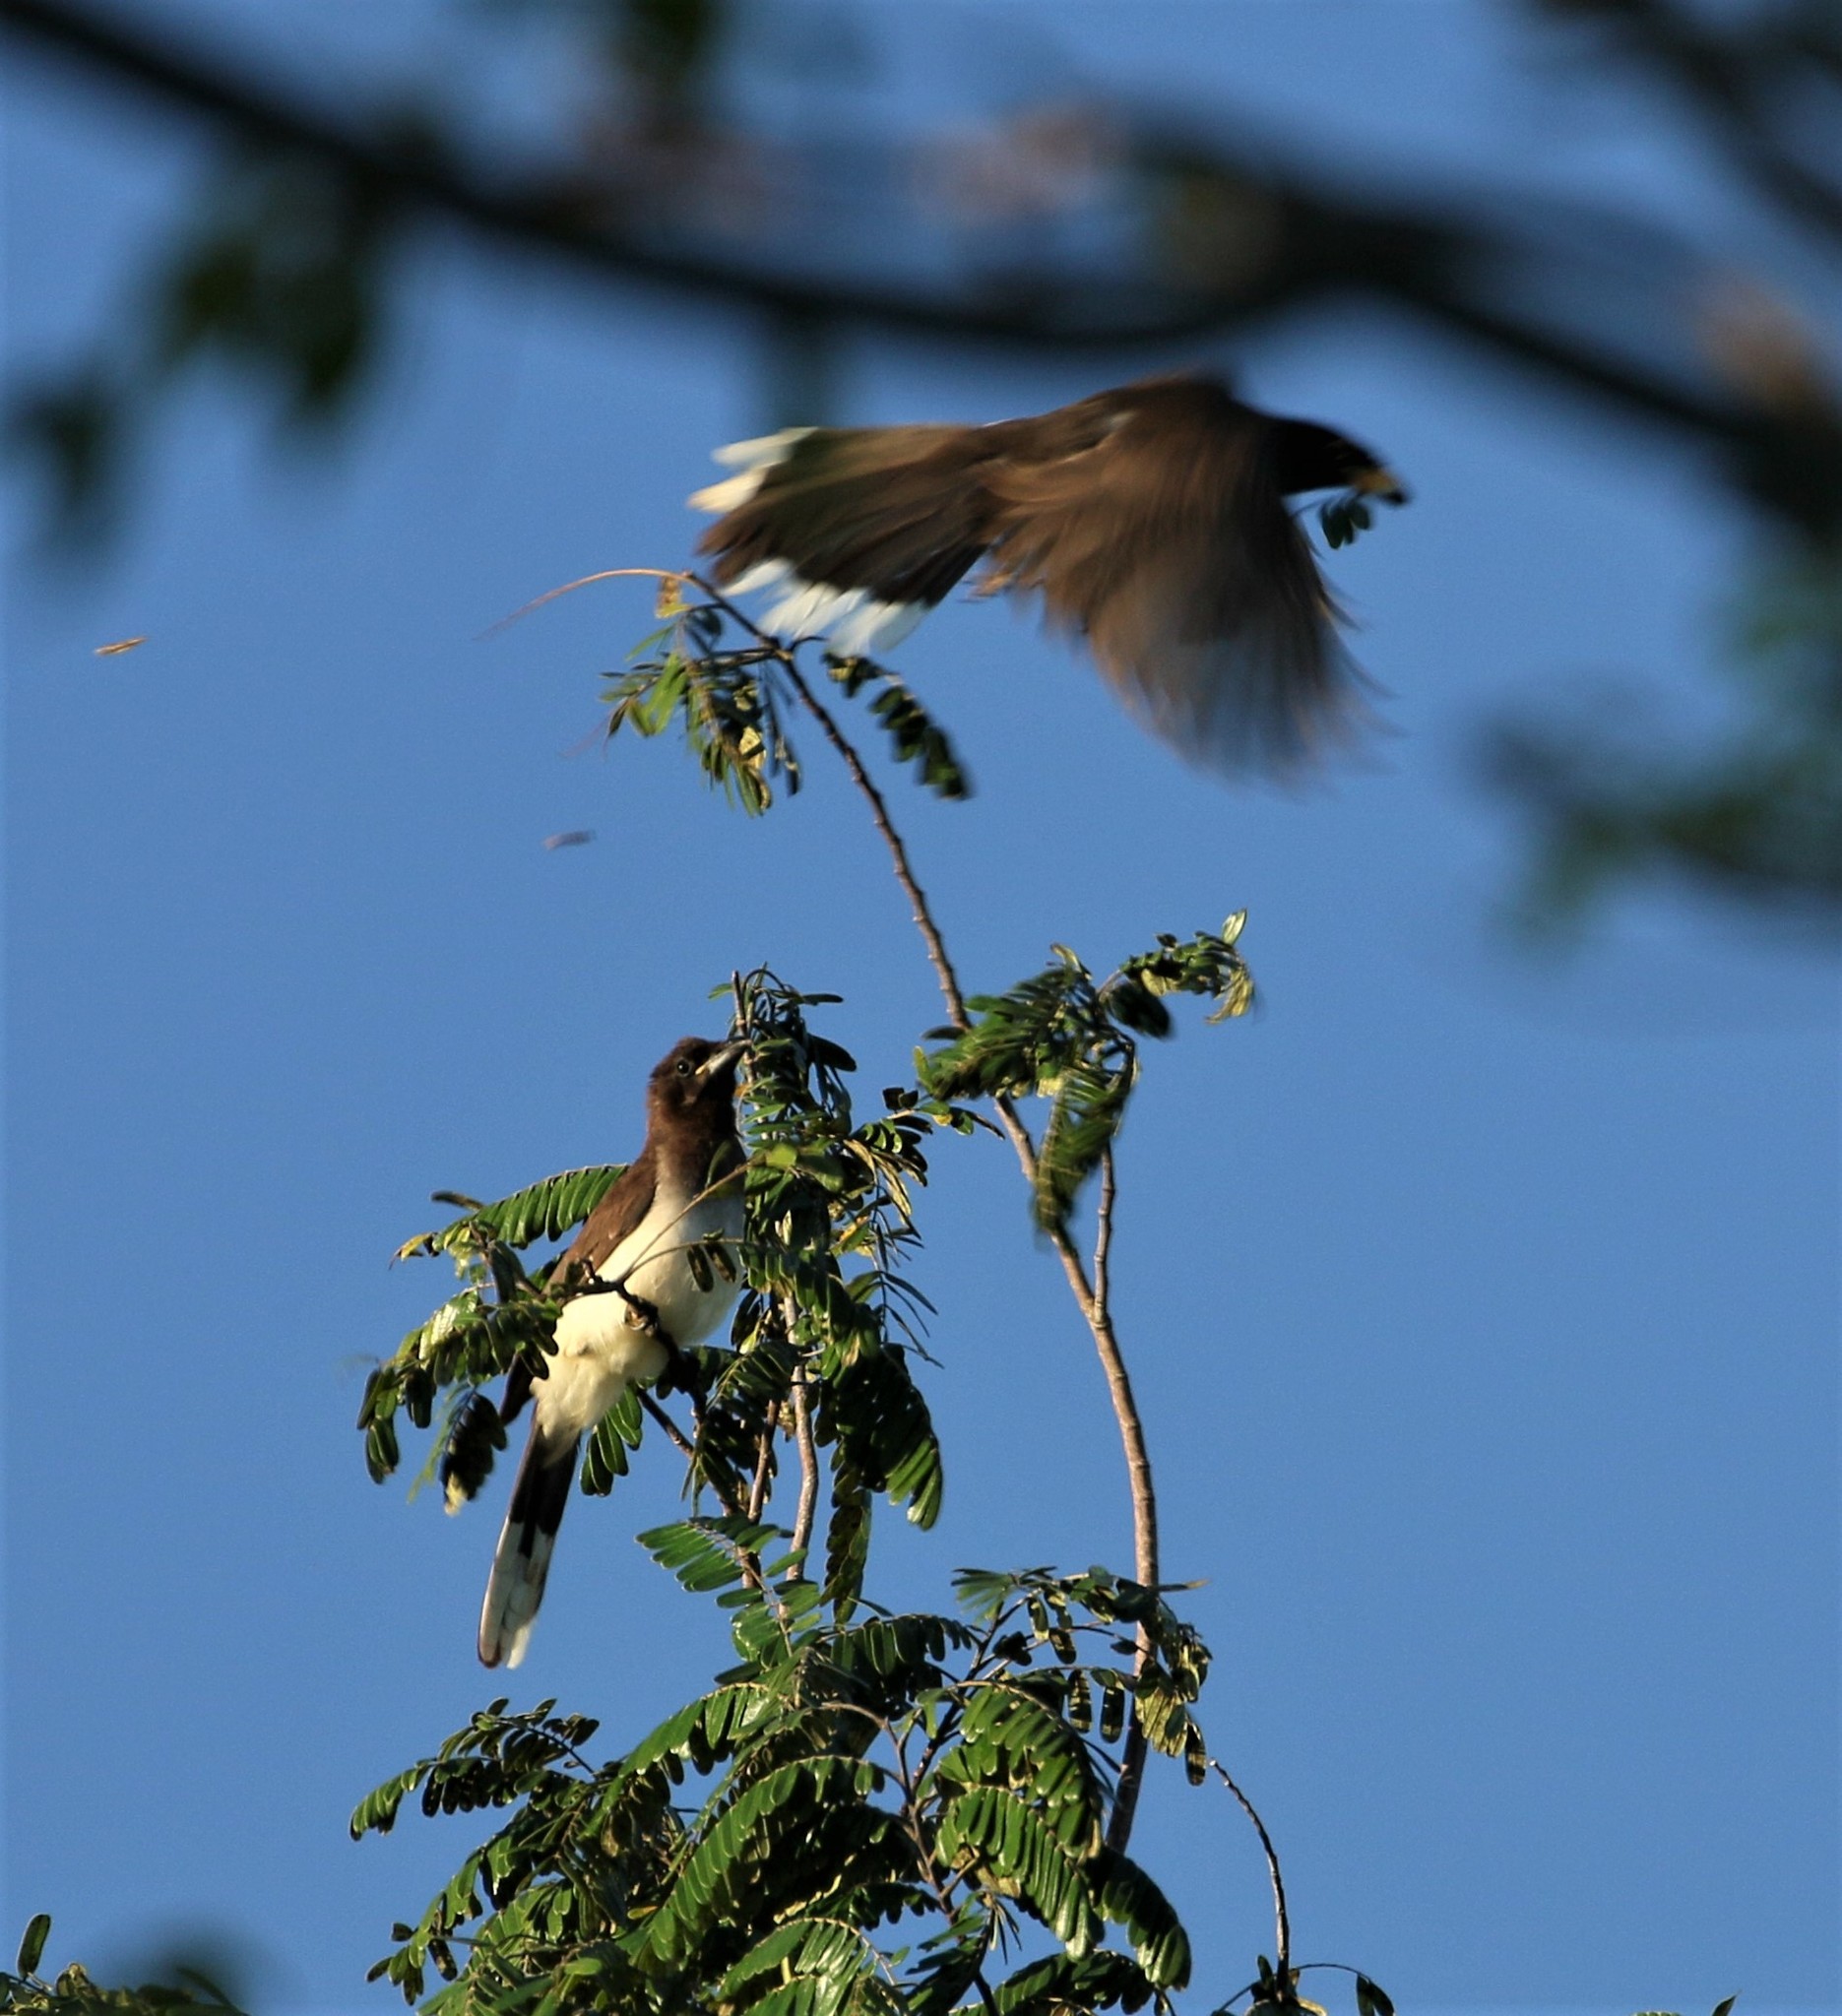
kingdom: Animalia
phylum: Chordata
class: Aves
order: Passeriformes
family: Corvidae
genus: Psilorhinus
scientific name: Psilorhinus morio
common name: Brown jay
